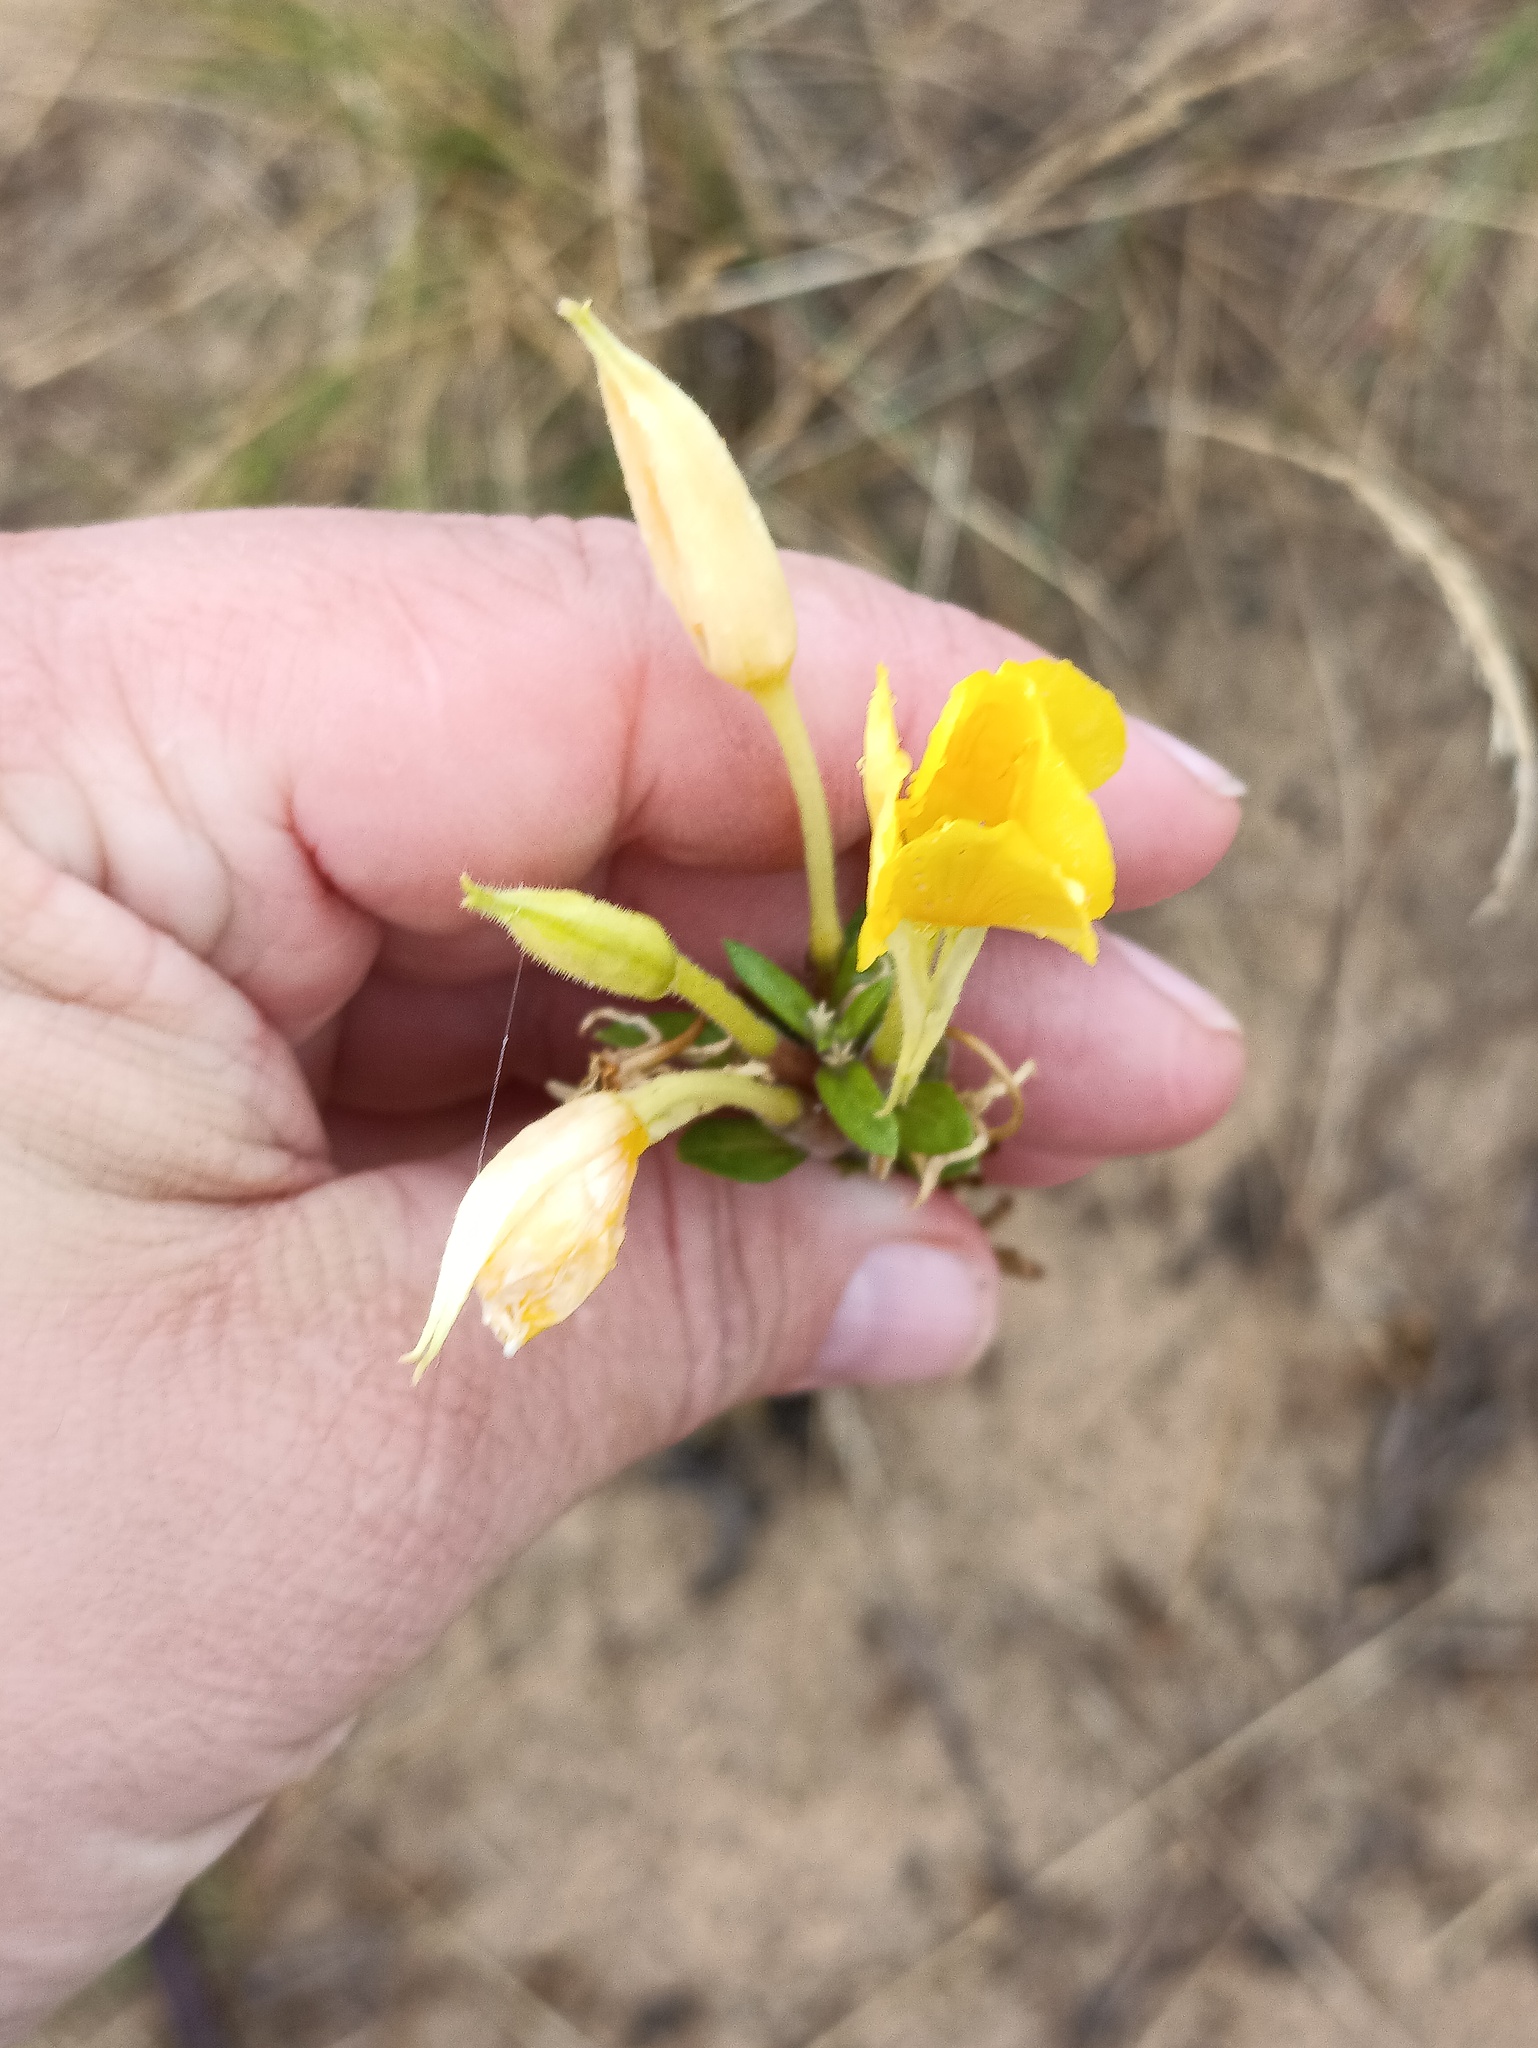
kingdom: Plantae
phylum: Tracheophyta
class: Magnoliopsida
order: Myrtales
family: Onagraceae
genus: Oenothera
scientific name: Oenothera rubricaulis
